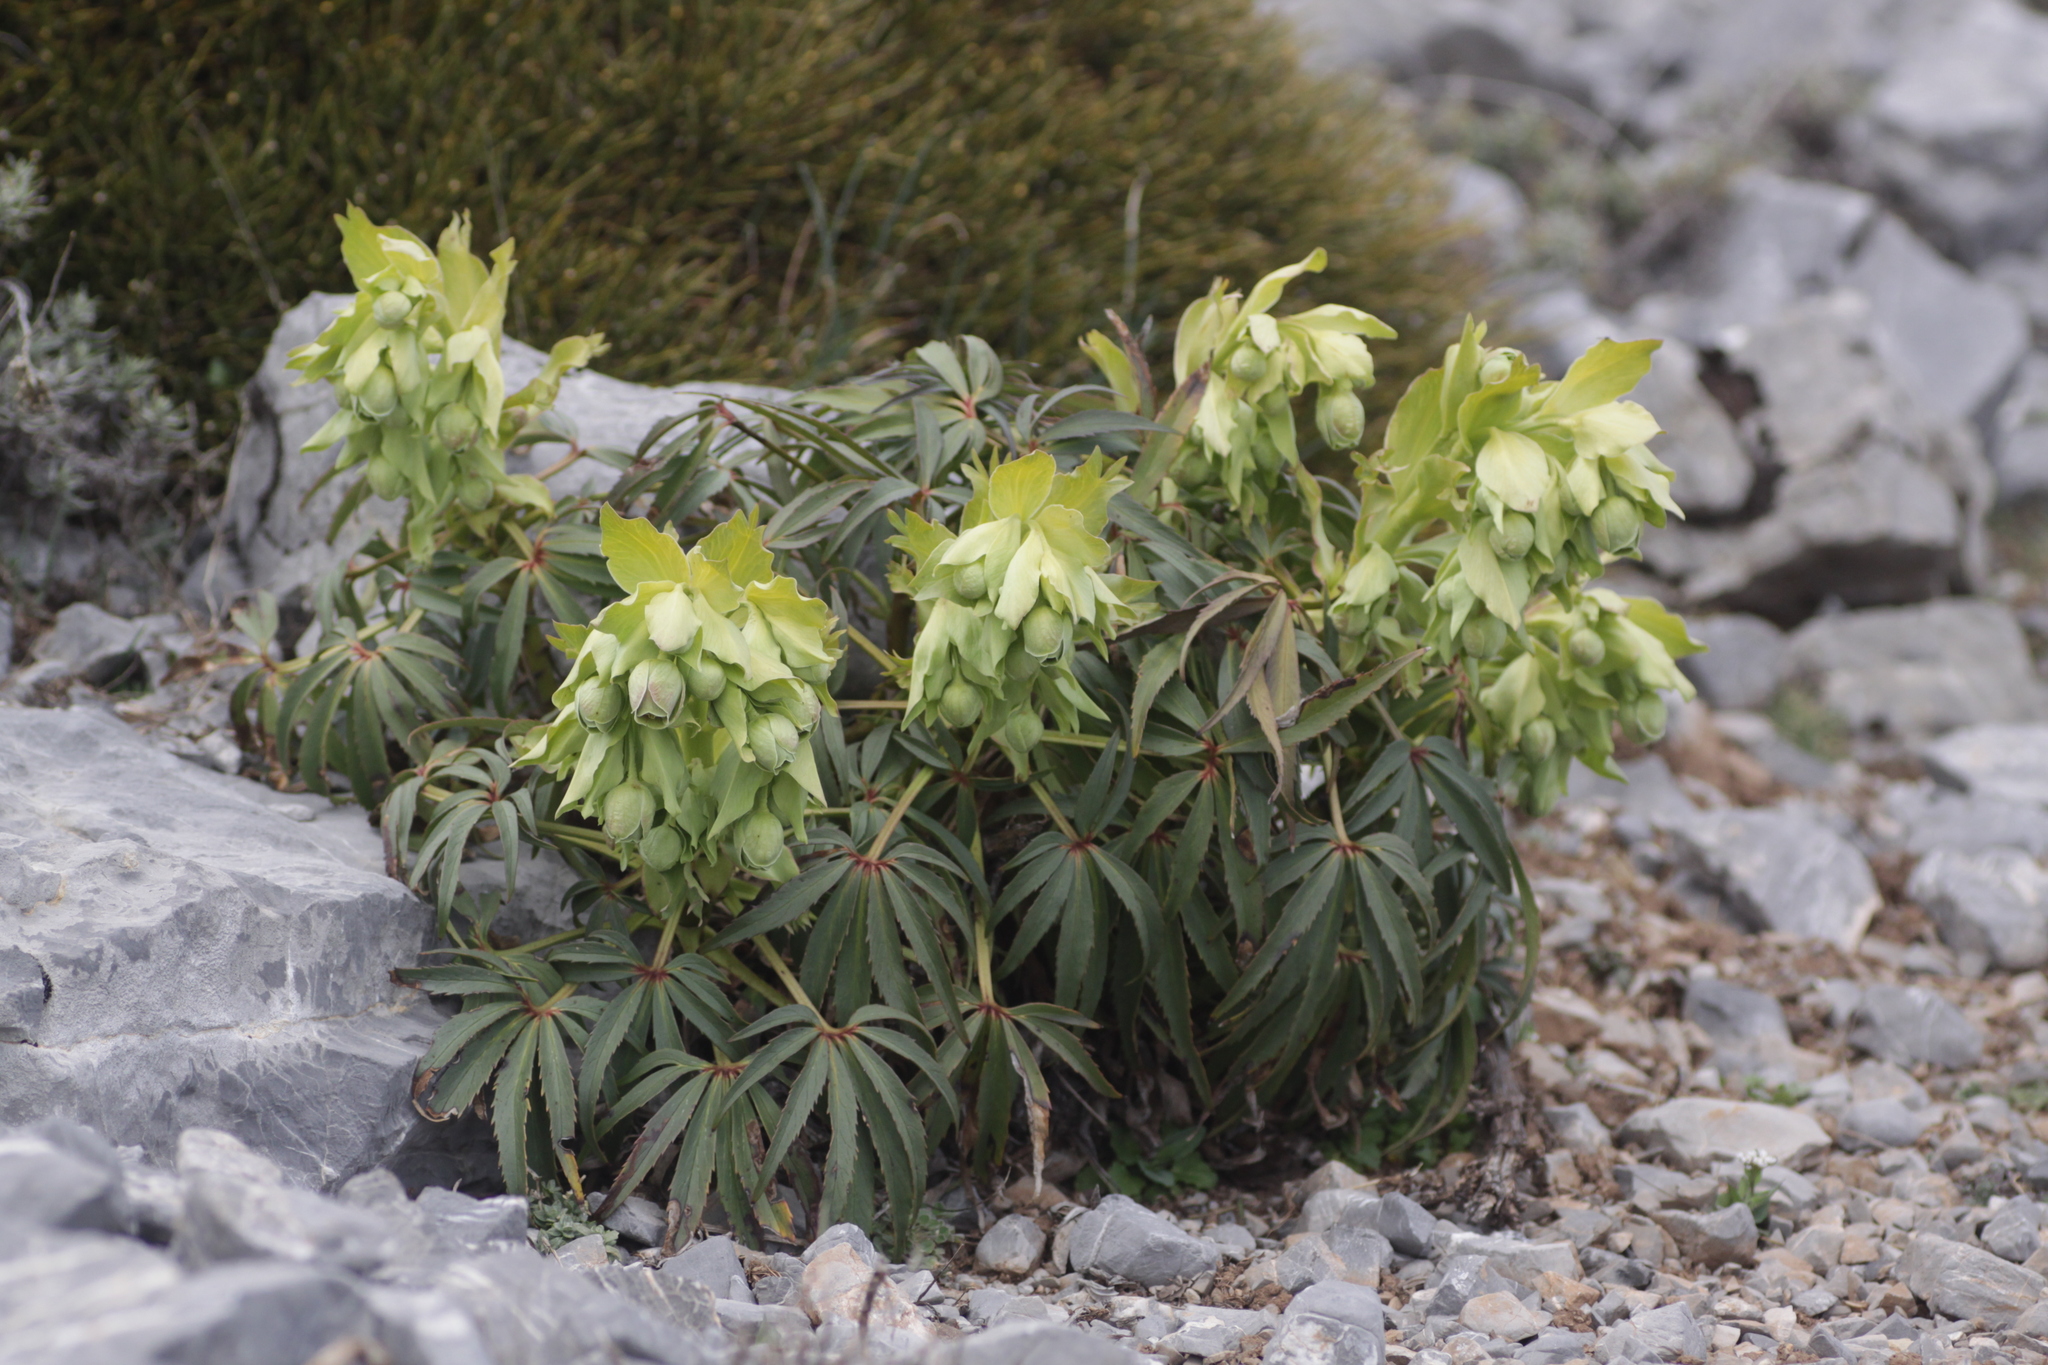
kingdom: Plantae
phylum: Tracheophyta
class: Magnoliopsida
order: Ranunculales
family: Ranunculaceae
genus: Helleborus
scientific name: Helleborus foetidus
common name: Stinking hellebore
